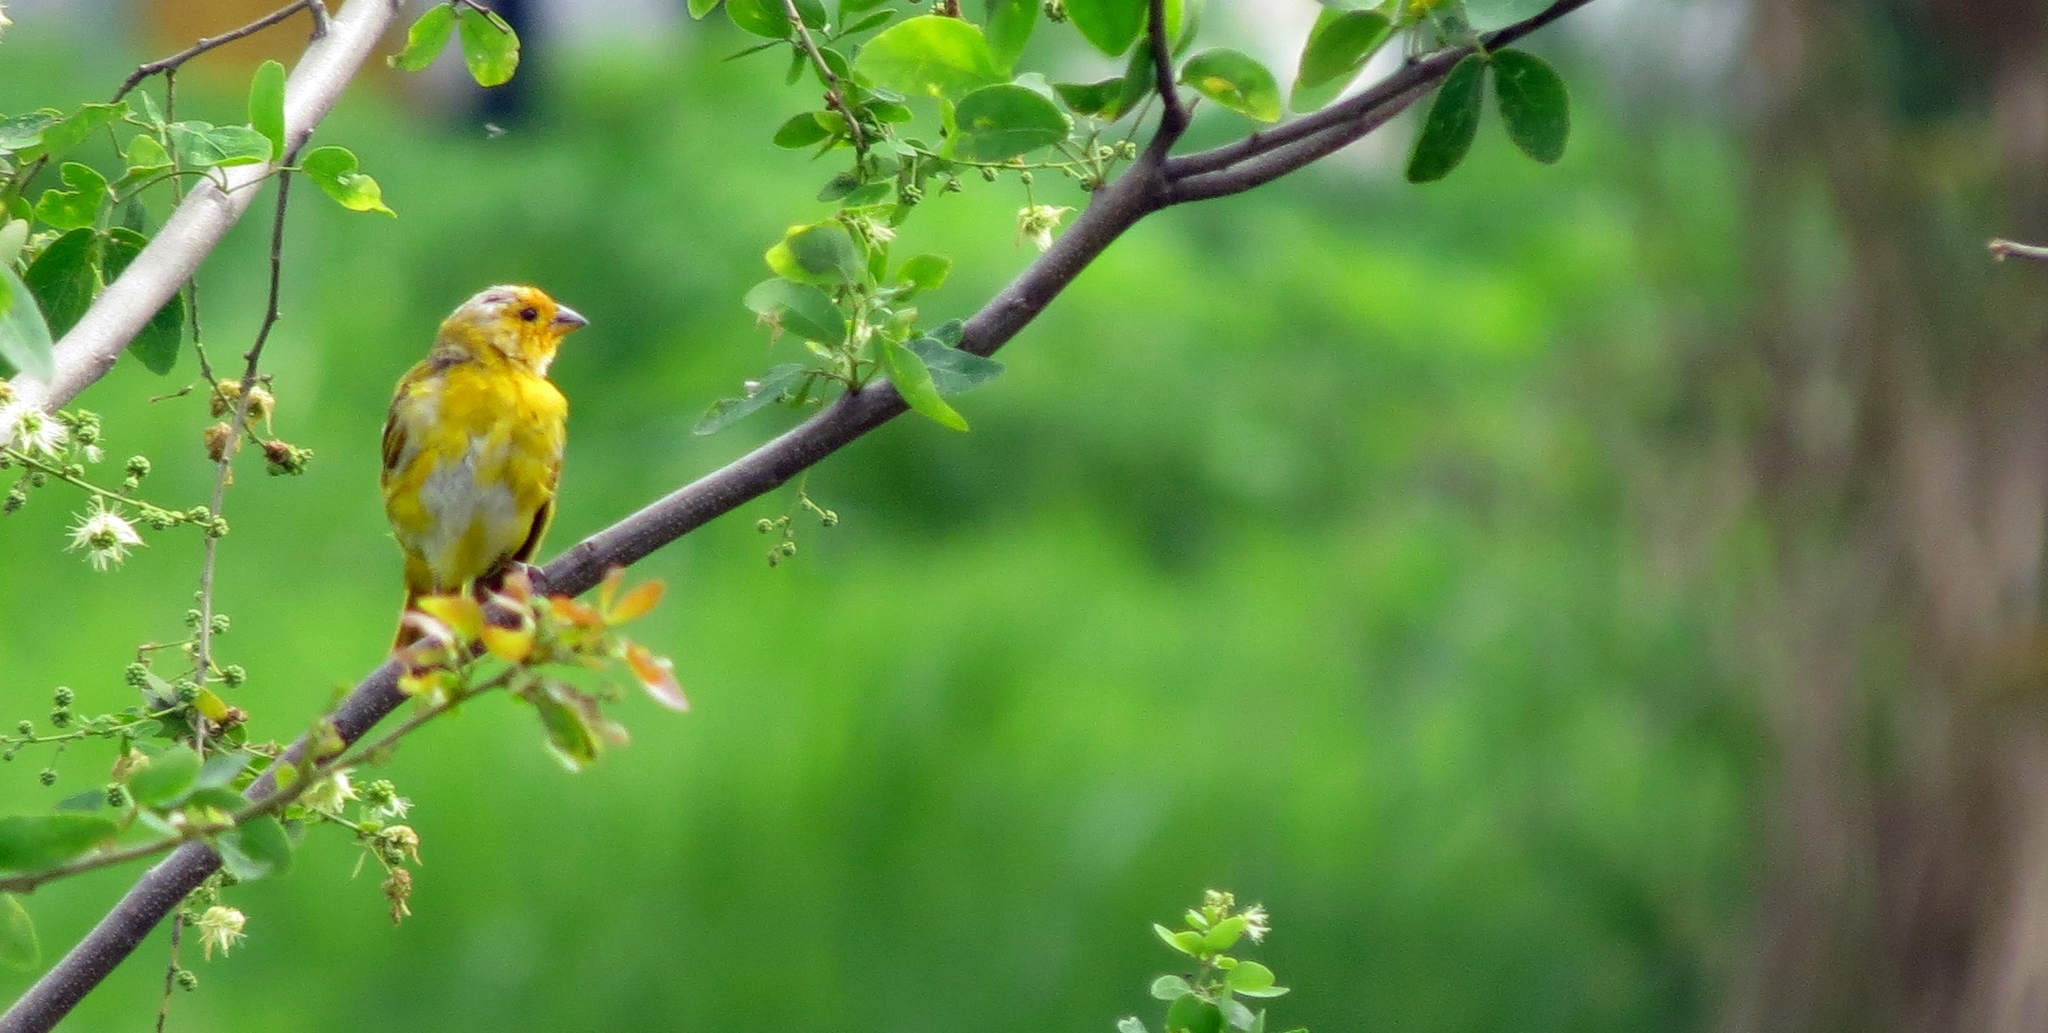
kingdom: Animalia
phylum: Chordata
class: Aves
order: Passeriformes
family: Thraupidae
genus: Sicalis
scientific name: Sicalis flaveola
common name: Saffron finch
